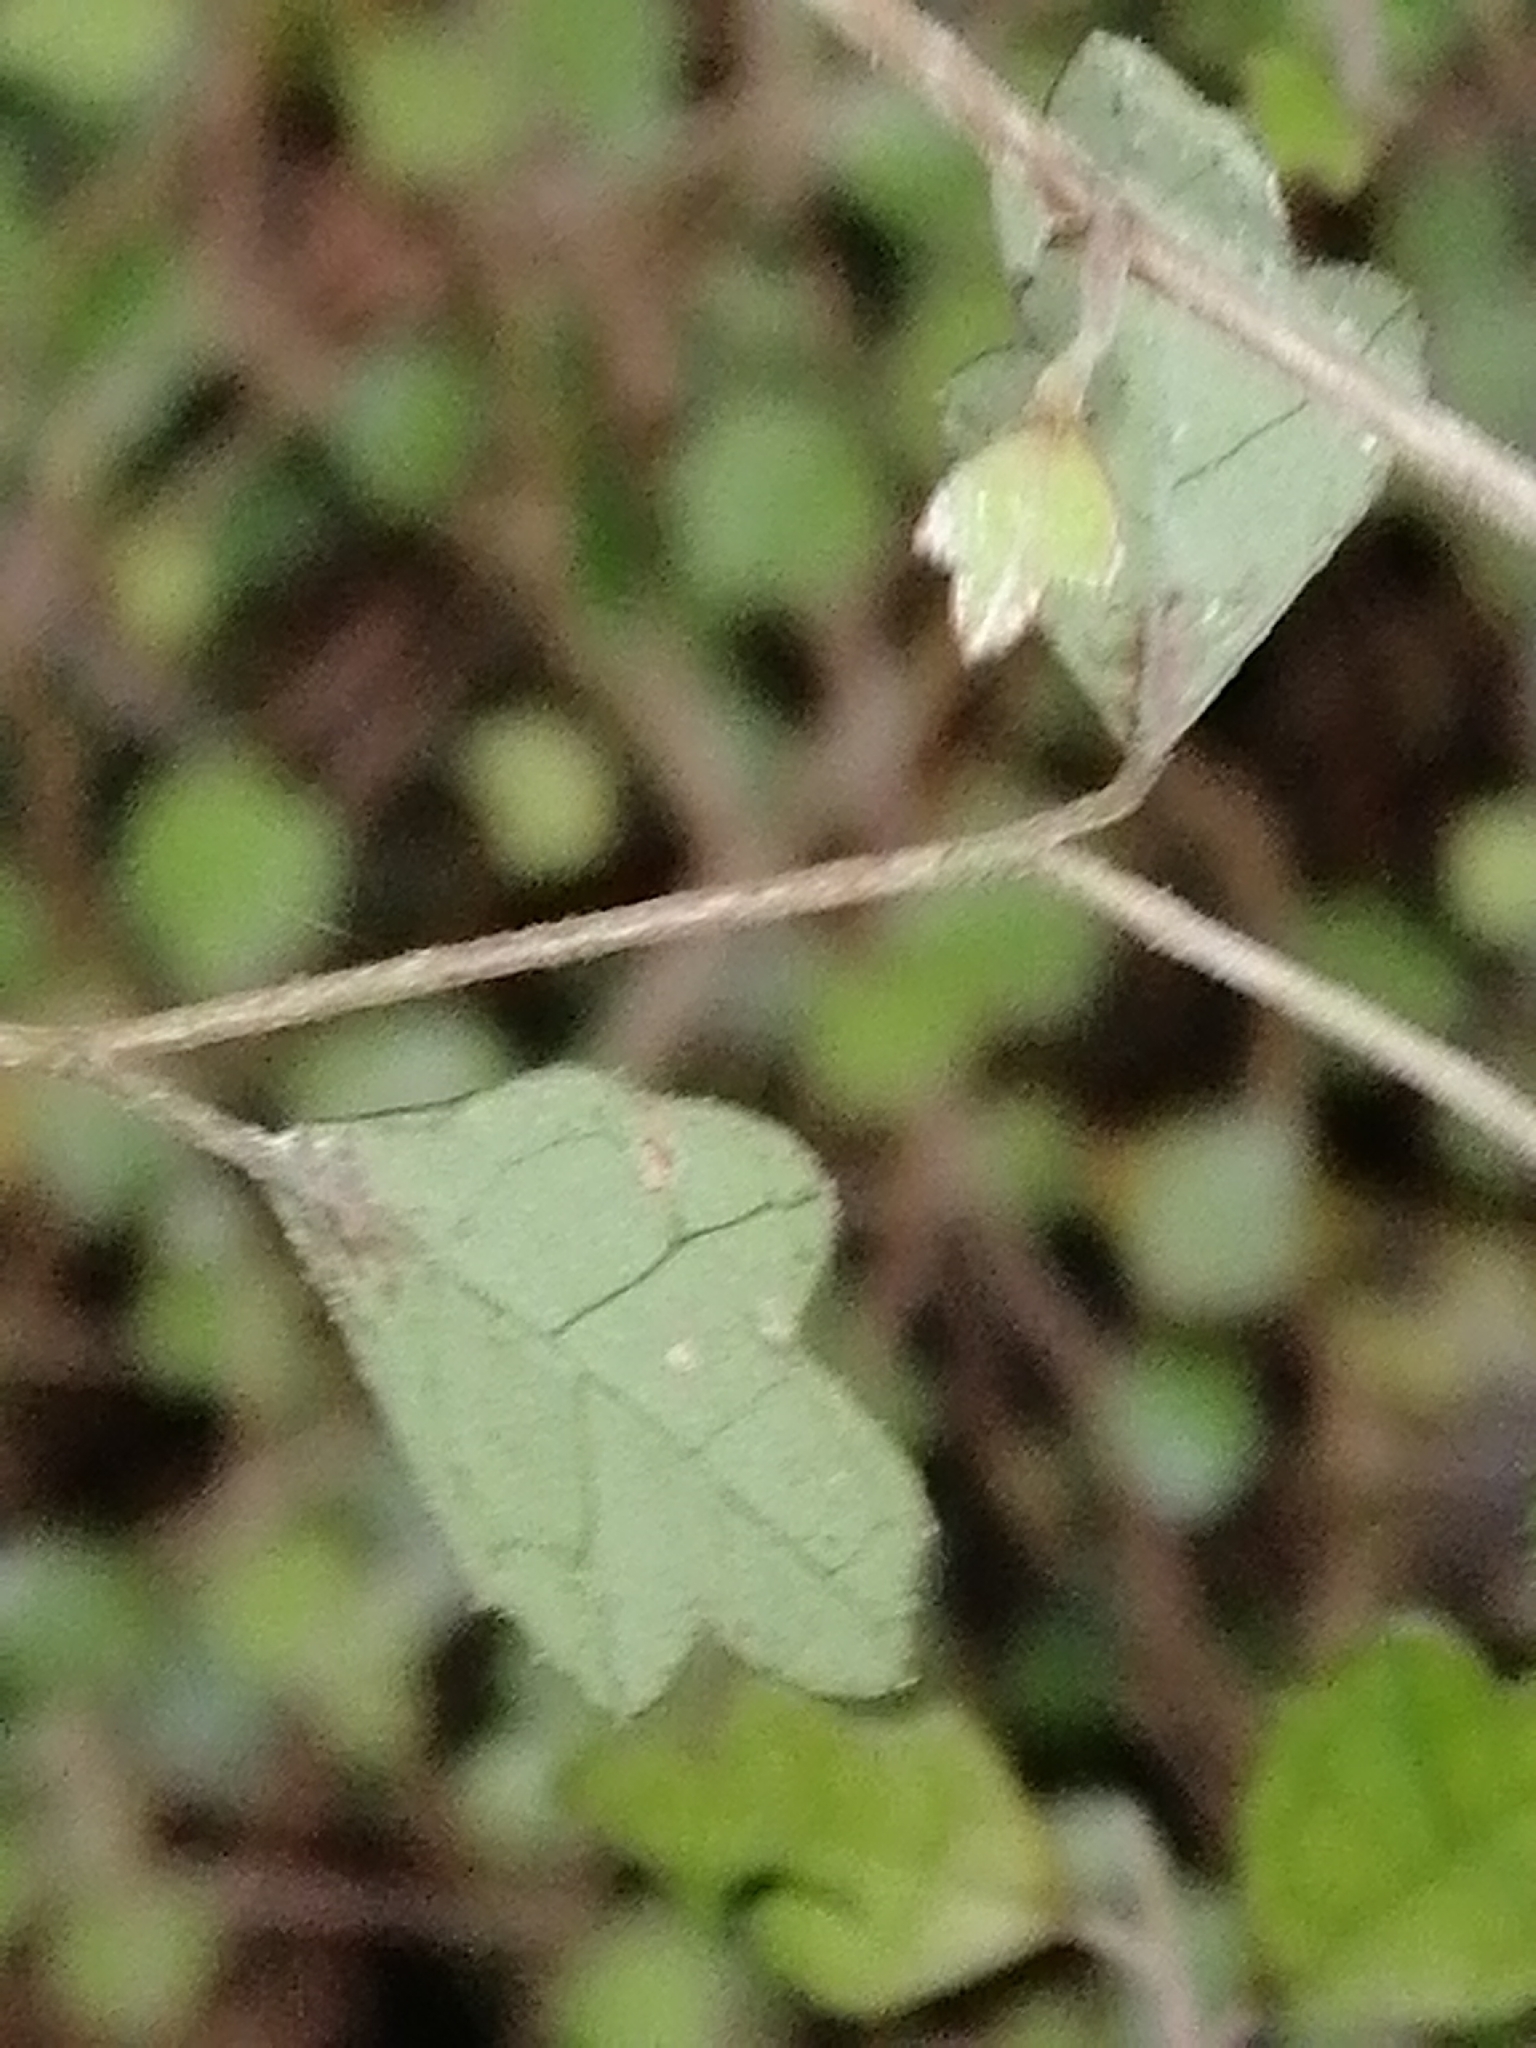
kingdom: Plantae
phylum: Tracheophyta
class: Magnoliopsida
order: Apiales
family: Pennantiaceae
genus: Pennantia
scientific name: Pennantia corymbosa
